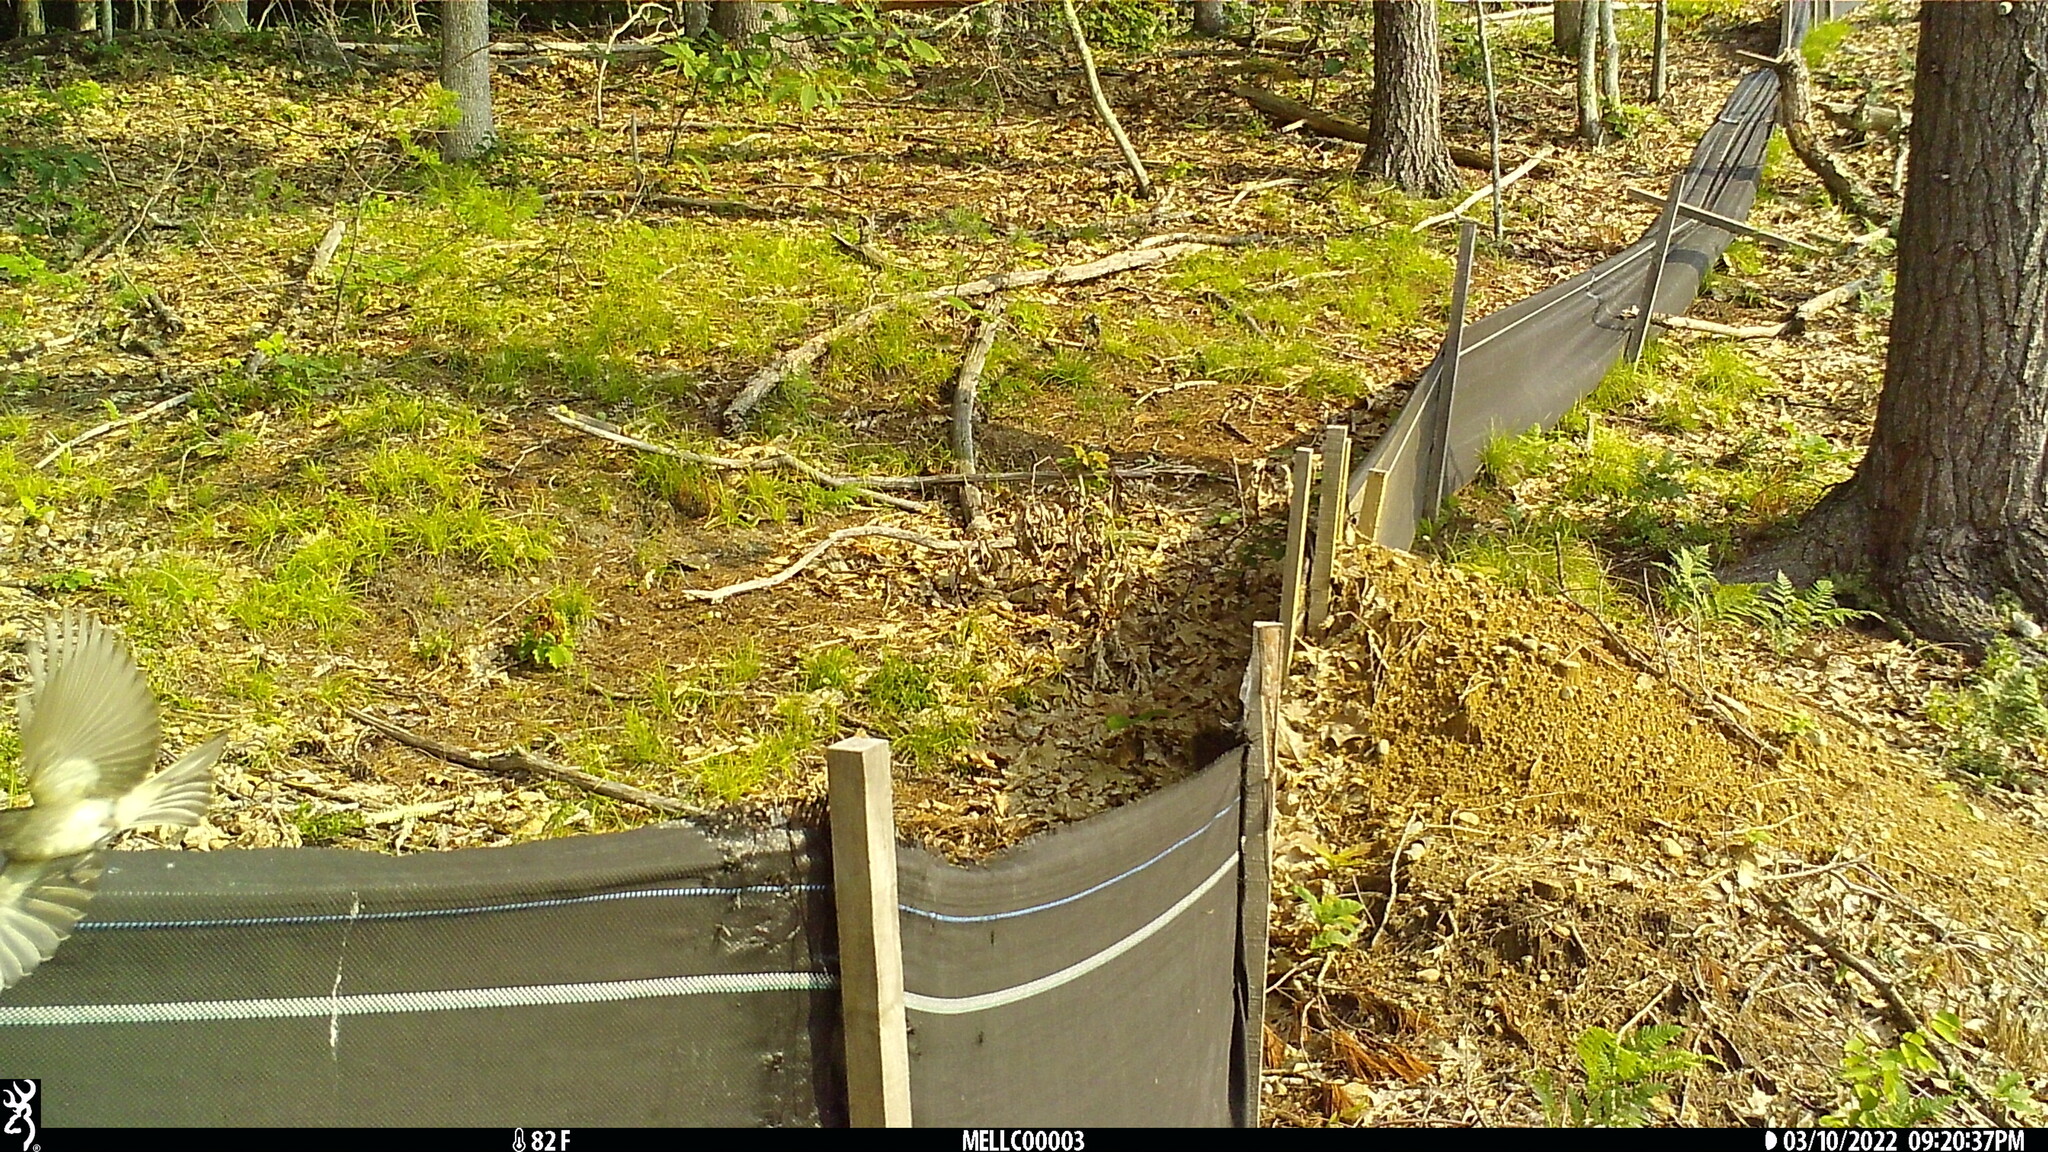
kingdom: Animalia
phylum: Chordata
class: Aves
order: Passeriformes
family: Tyrannidae
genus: Sayornis
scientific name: Sayornis phoebe
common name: Eastern phoebe
